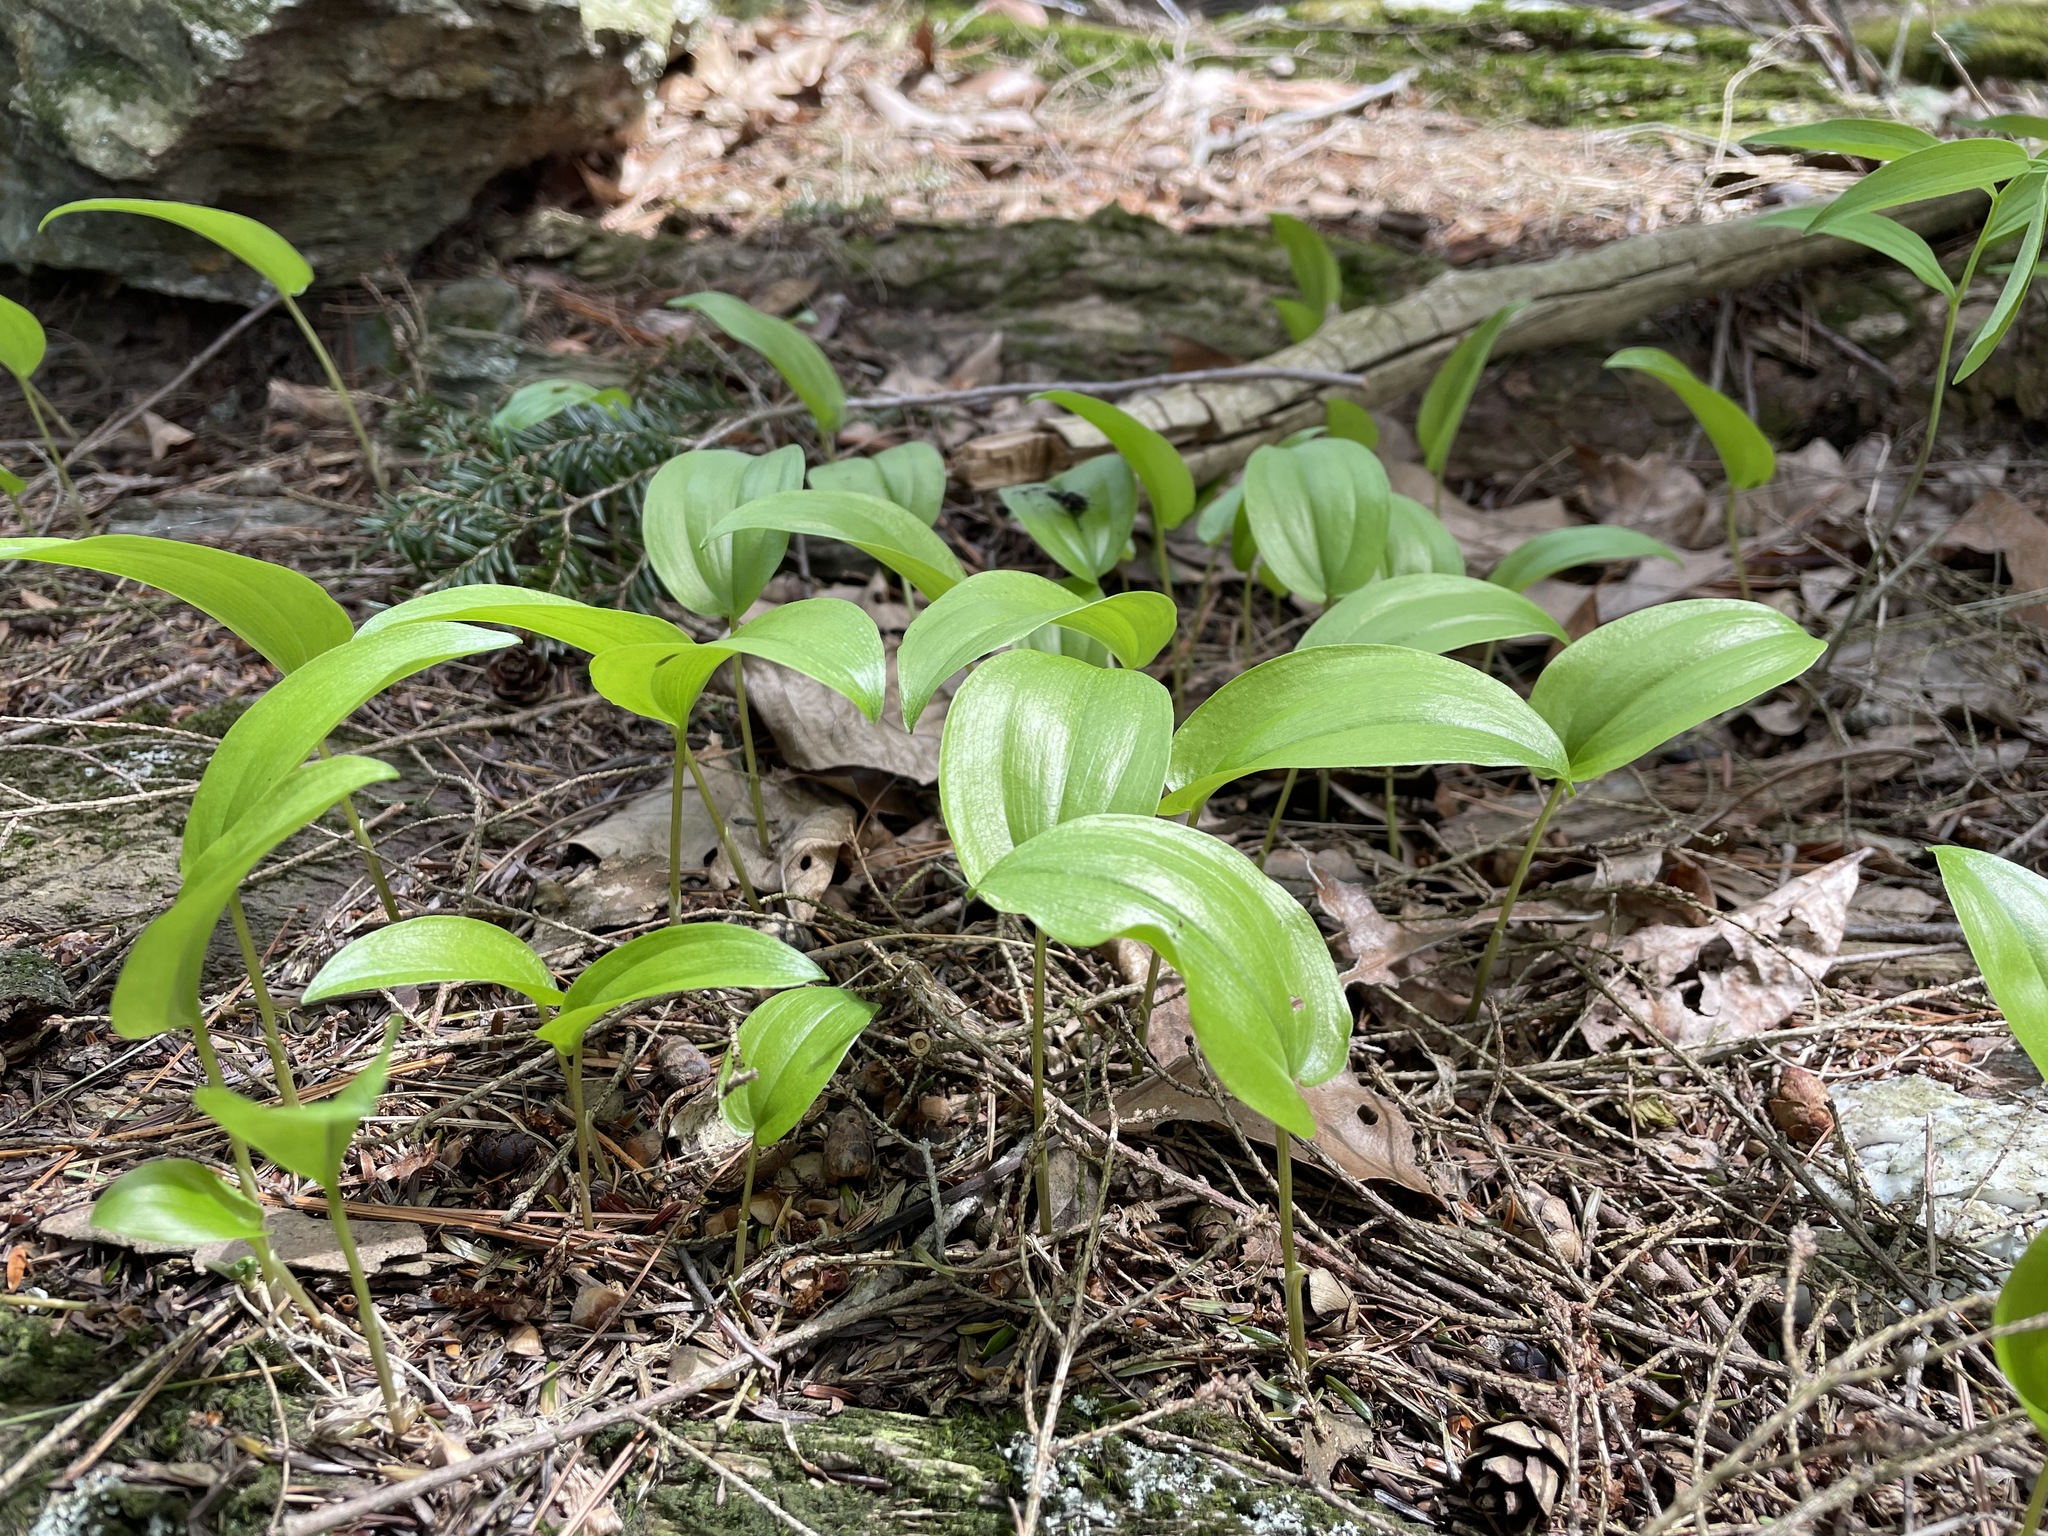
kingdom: Plantae
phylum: Tracheophyta
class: Liliopsida
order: Asparagales
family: Asparagaceae
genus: Maianthemum
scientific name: Maianthemum canadense
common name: False lily-of-the-valley
